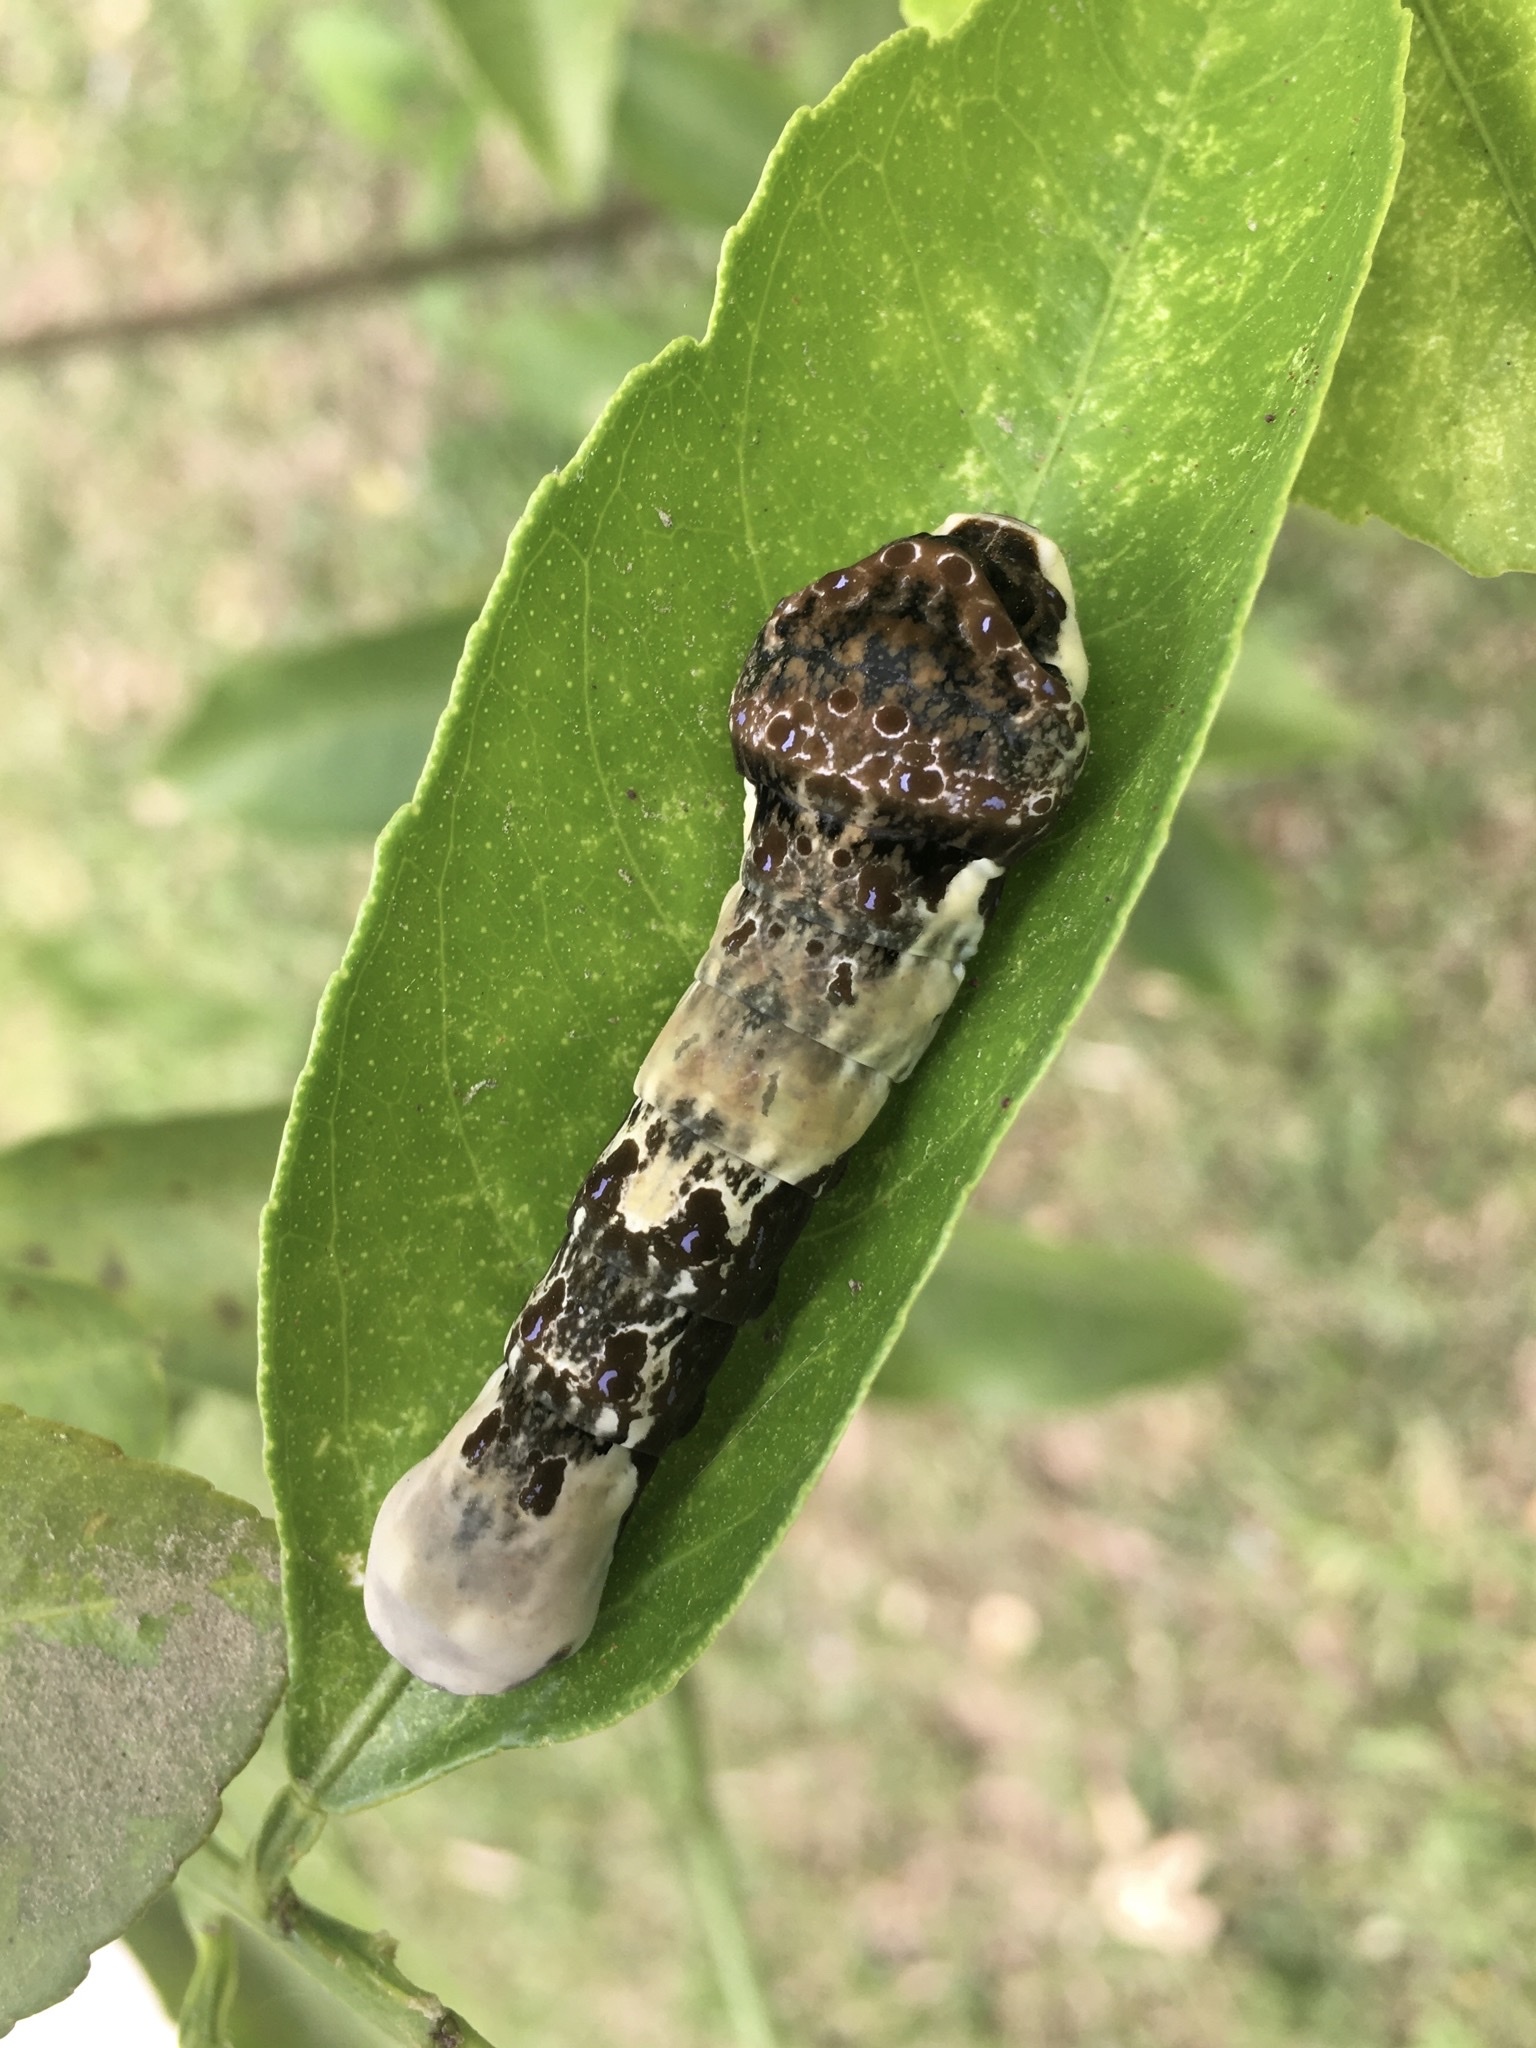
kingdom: Animalia
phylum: Arthropoda
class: Insecta
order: Lepidoptera
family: Papilionidae
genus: Papilio
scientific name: Papilio cresphontes
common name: Giant swallowtail
